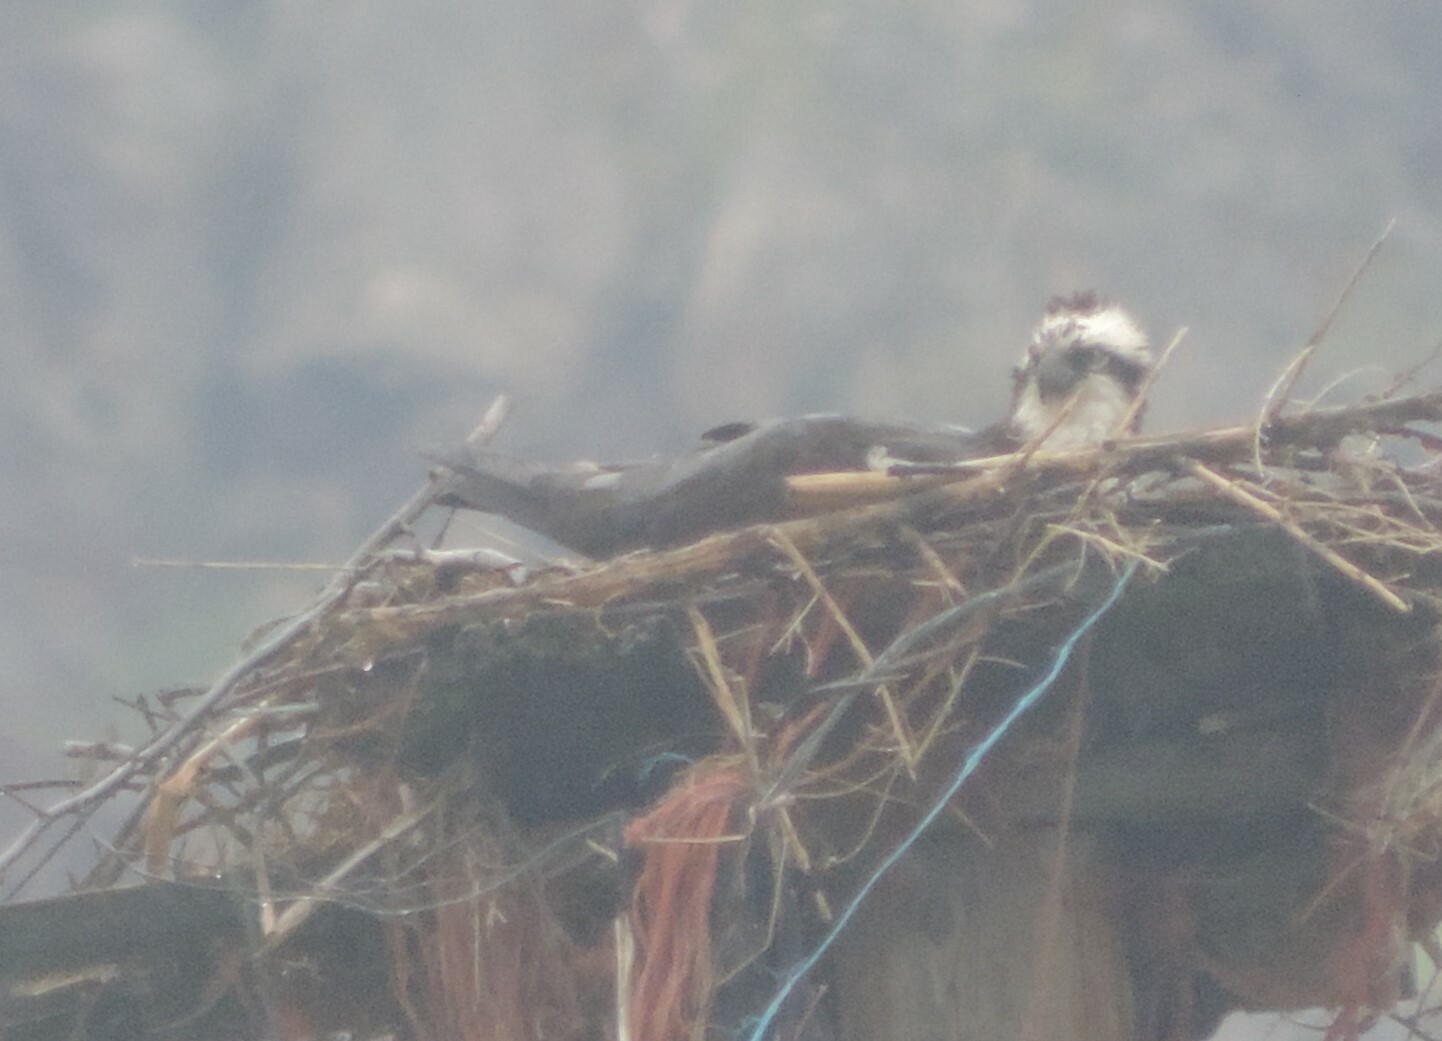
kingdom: Animalia
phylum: Chordata
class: Aves
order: Accipitriformes
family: Pandionidae
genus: Pandion
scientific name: Pandion haliaetus
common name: Osprey
